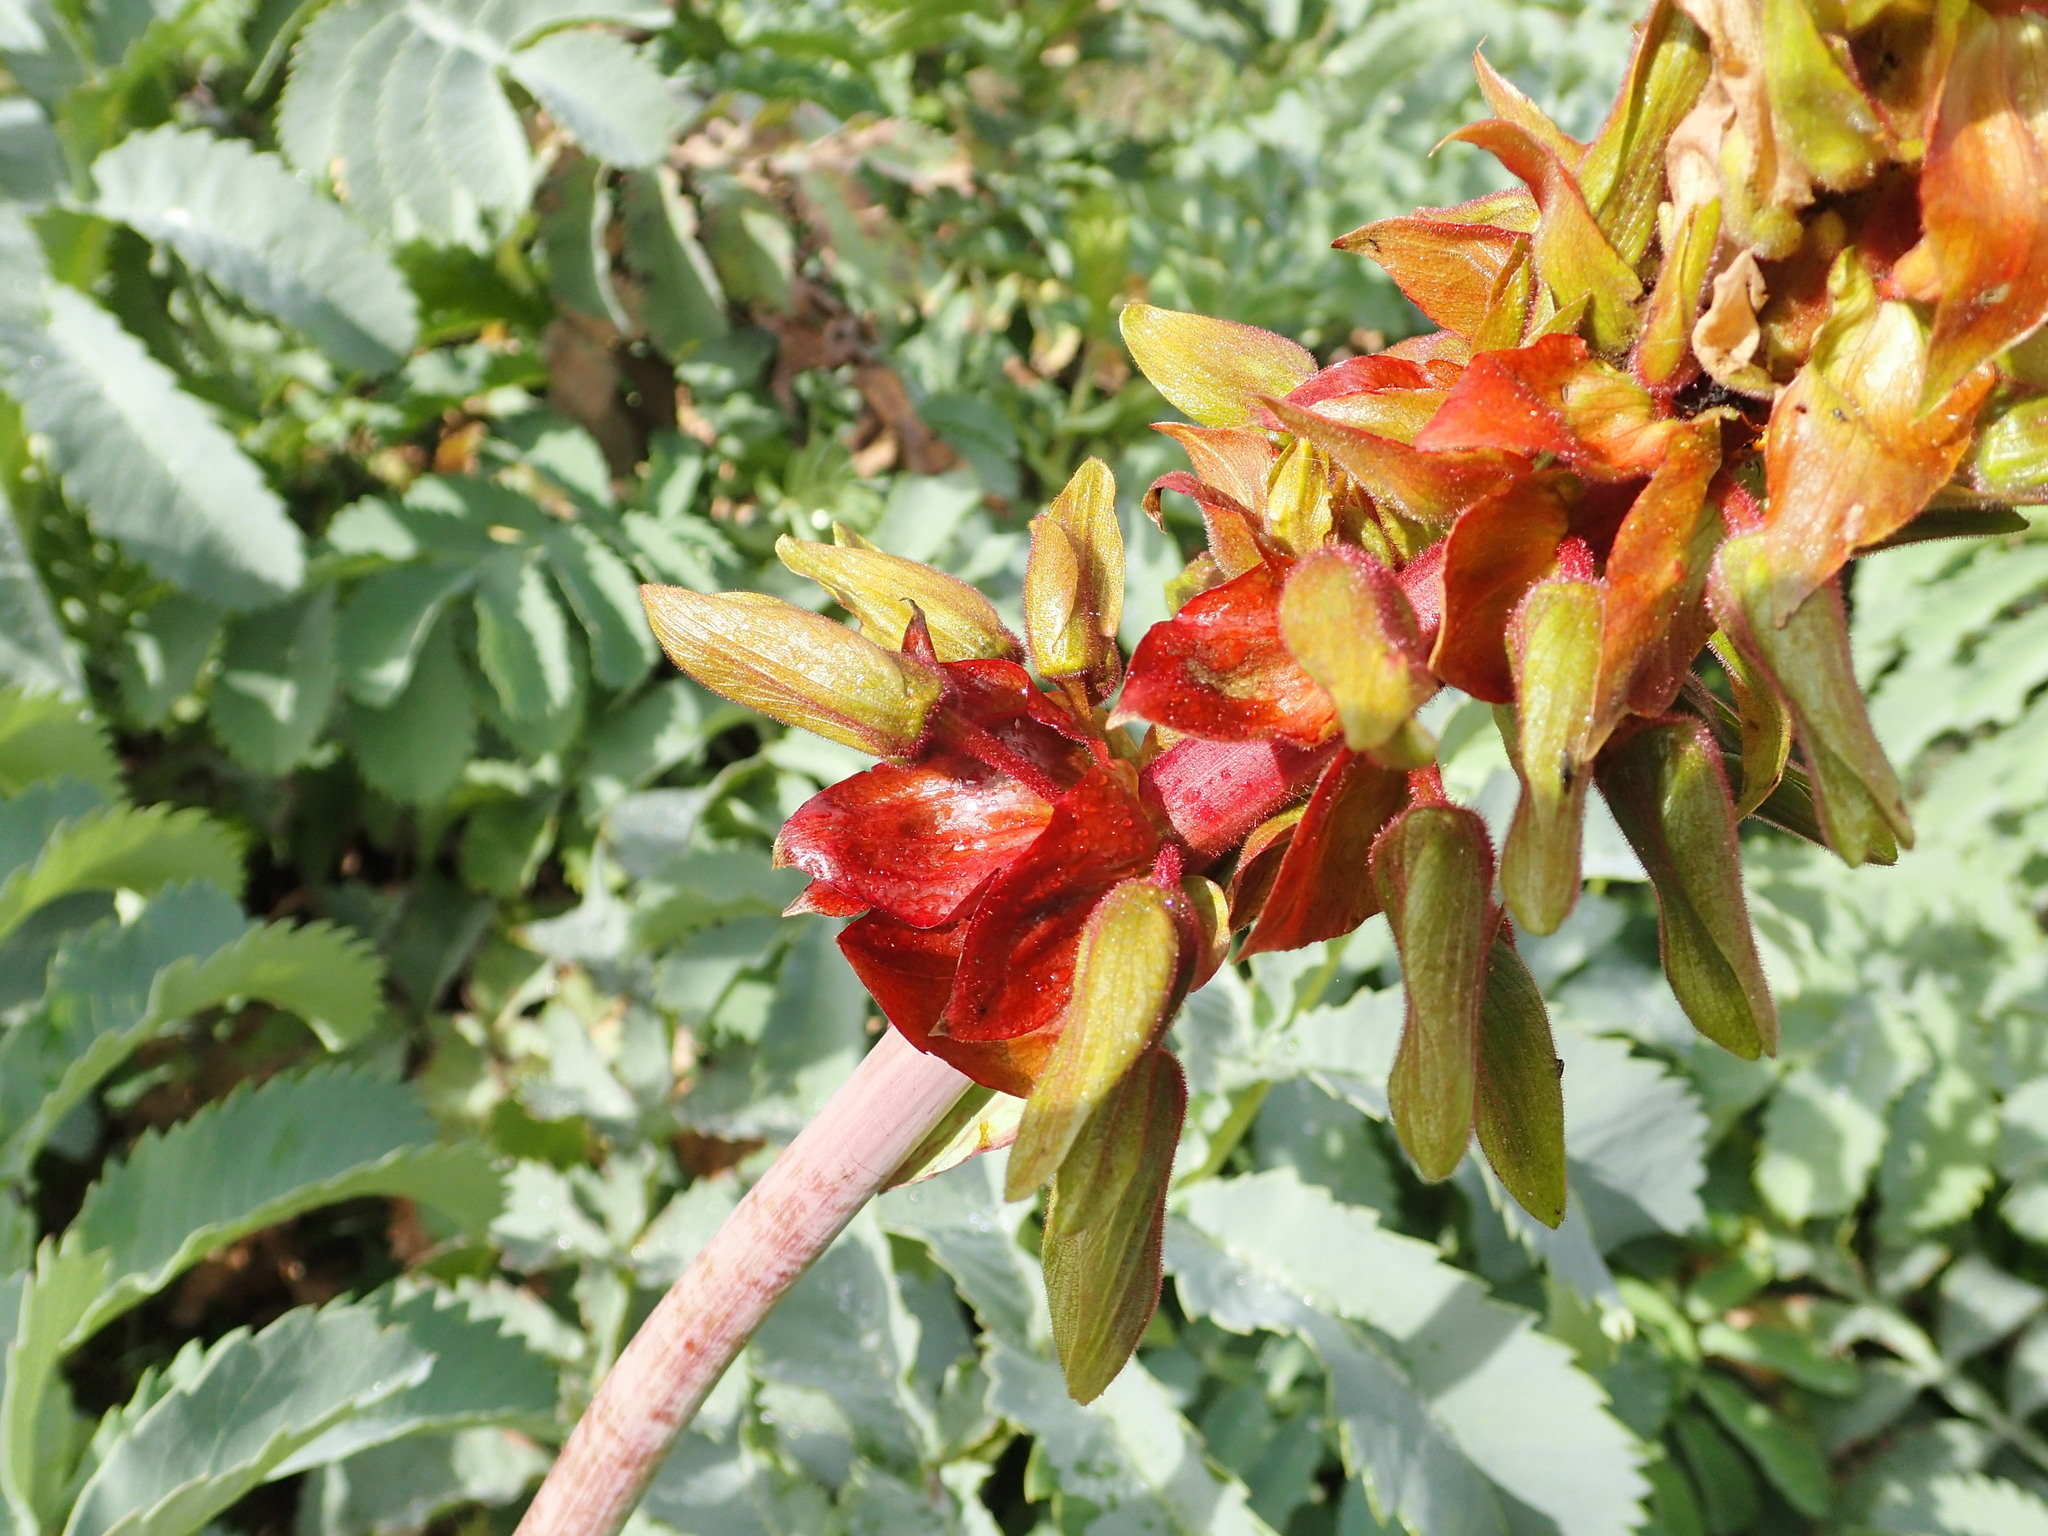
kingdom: Plantae
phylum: Tracheophyta
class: Magnoliopsida
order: Geraniales
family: Melianthaceae
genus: Melianthus
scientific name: Melianthus major
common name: Honey-flower
